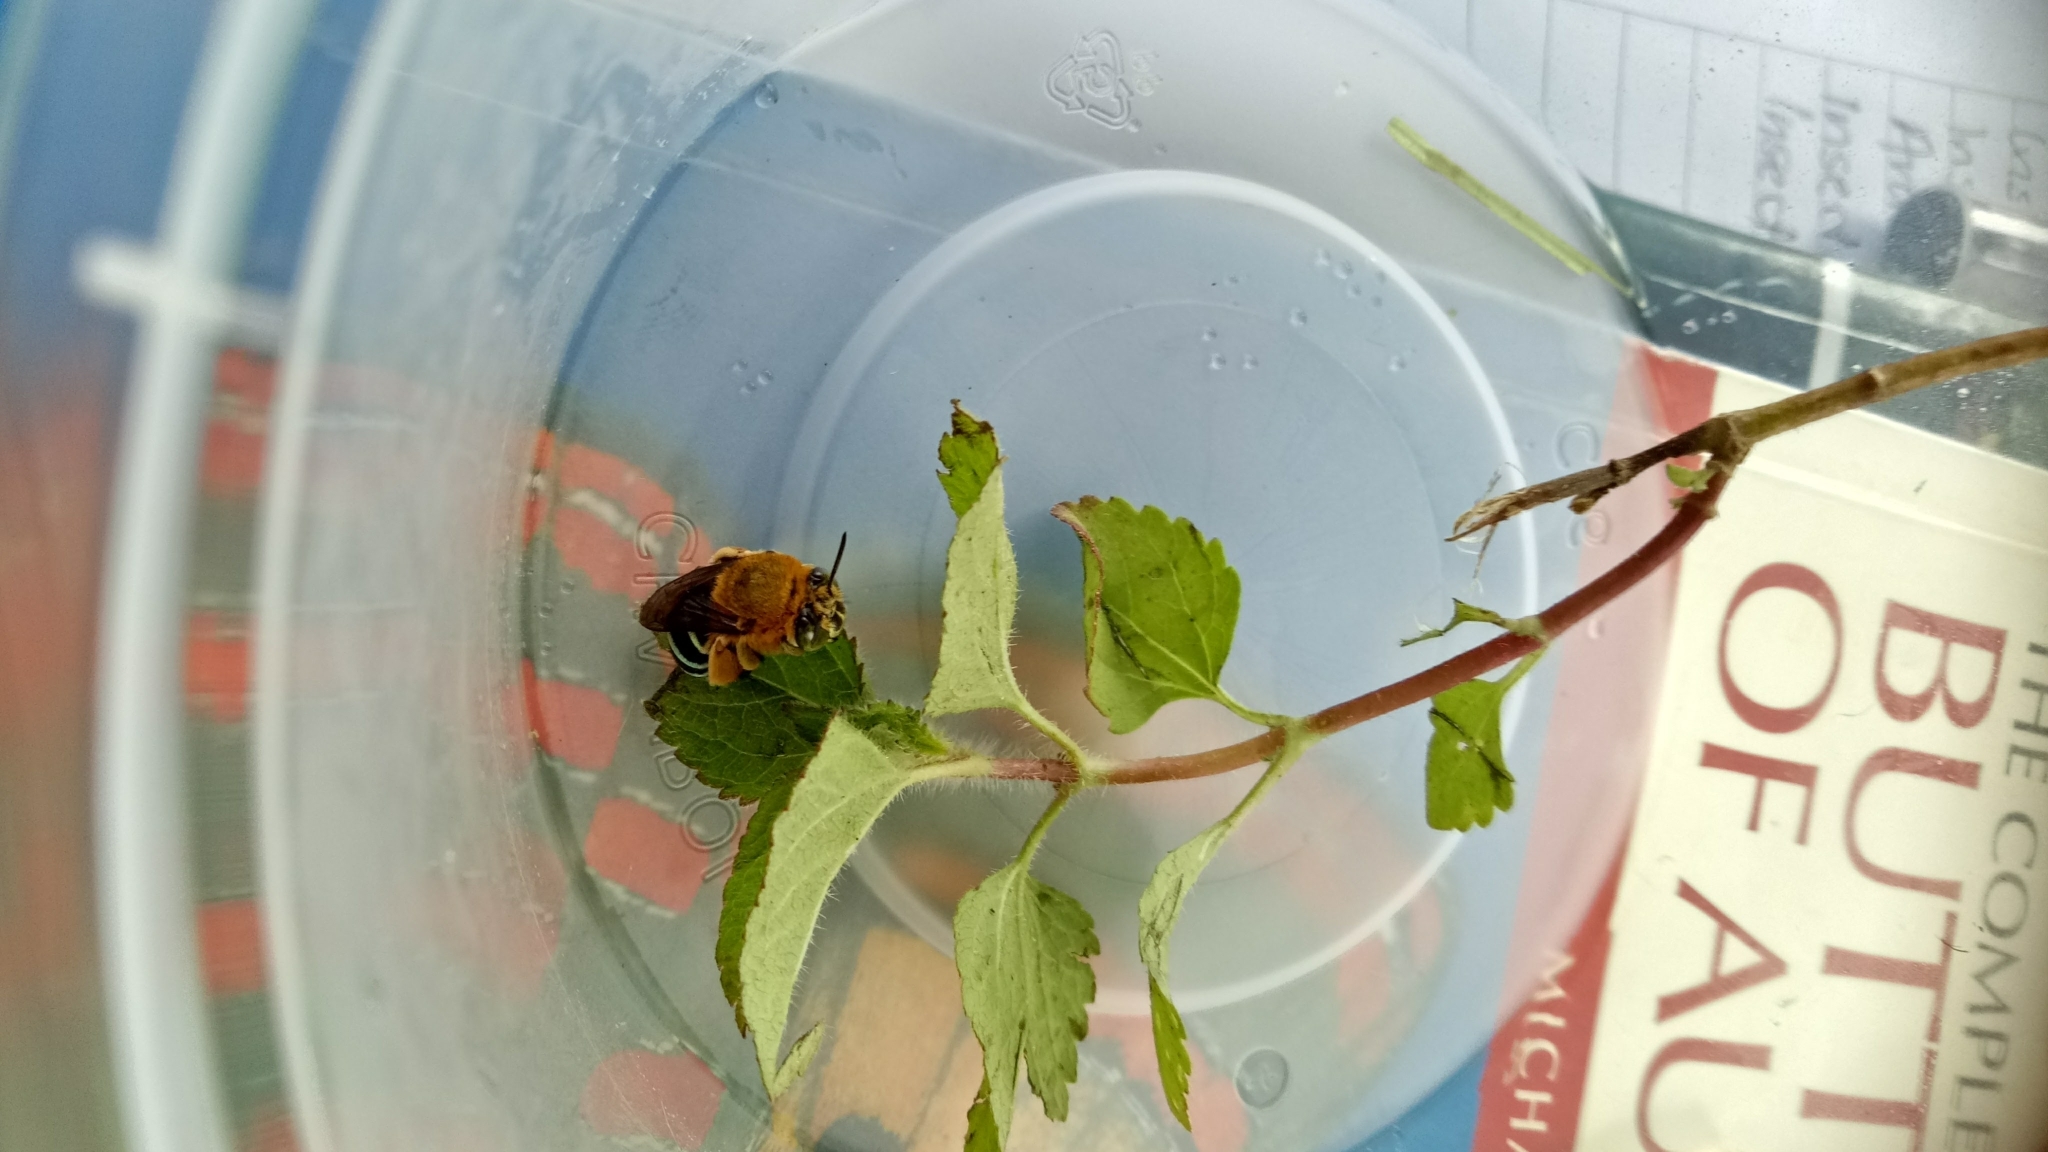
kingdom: Animalia
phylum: Arthropoda
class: Insecta
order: Hymenoptera
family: Apidae
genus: Amegilla
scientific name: Amegilla cingulata
